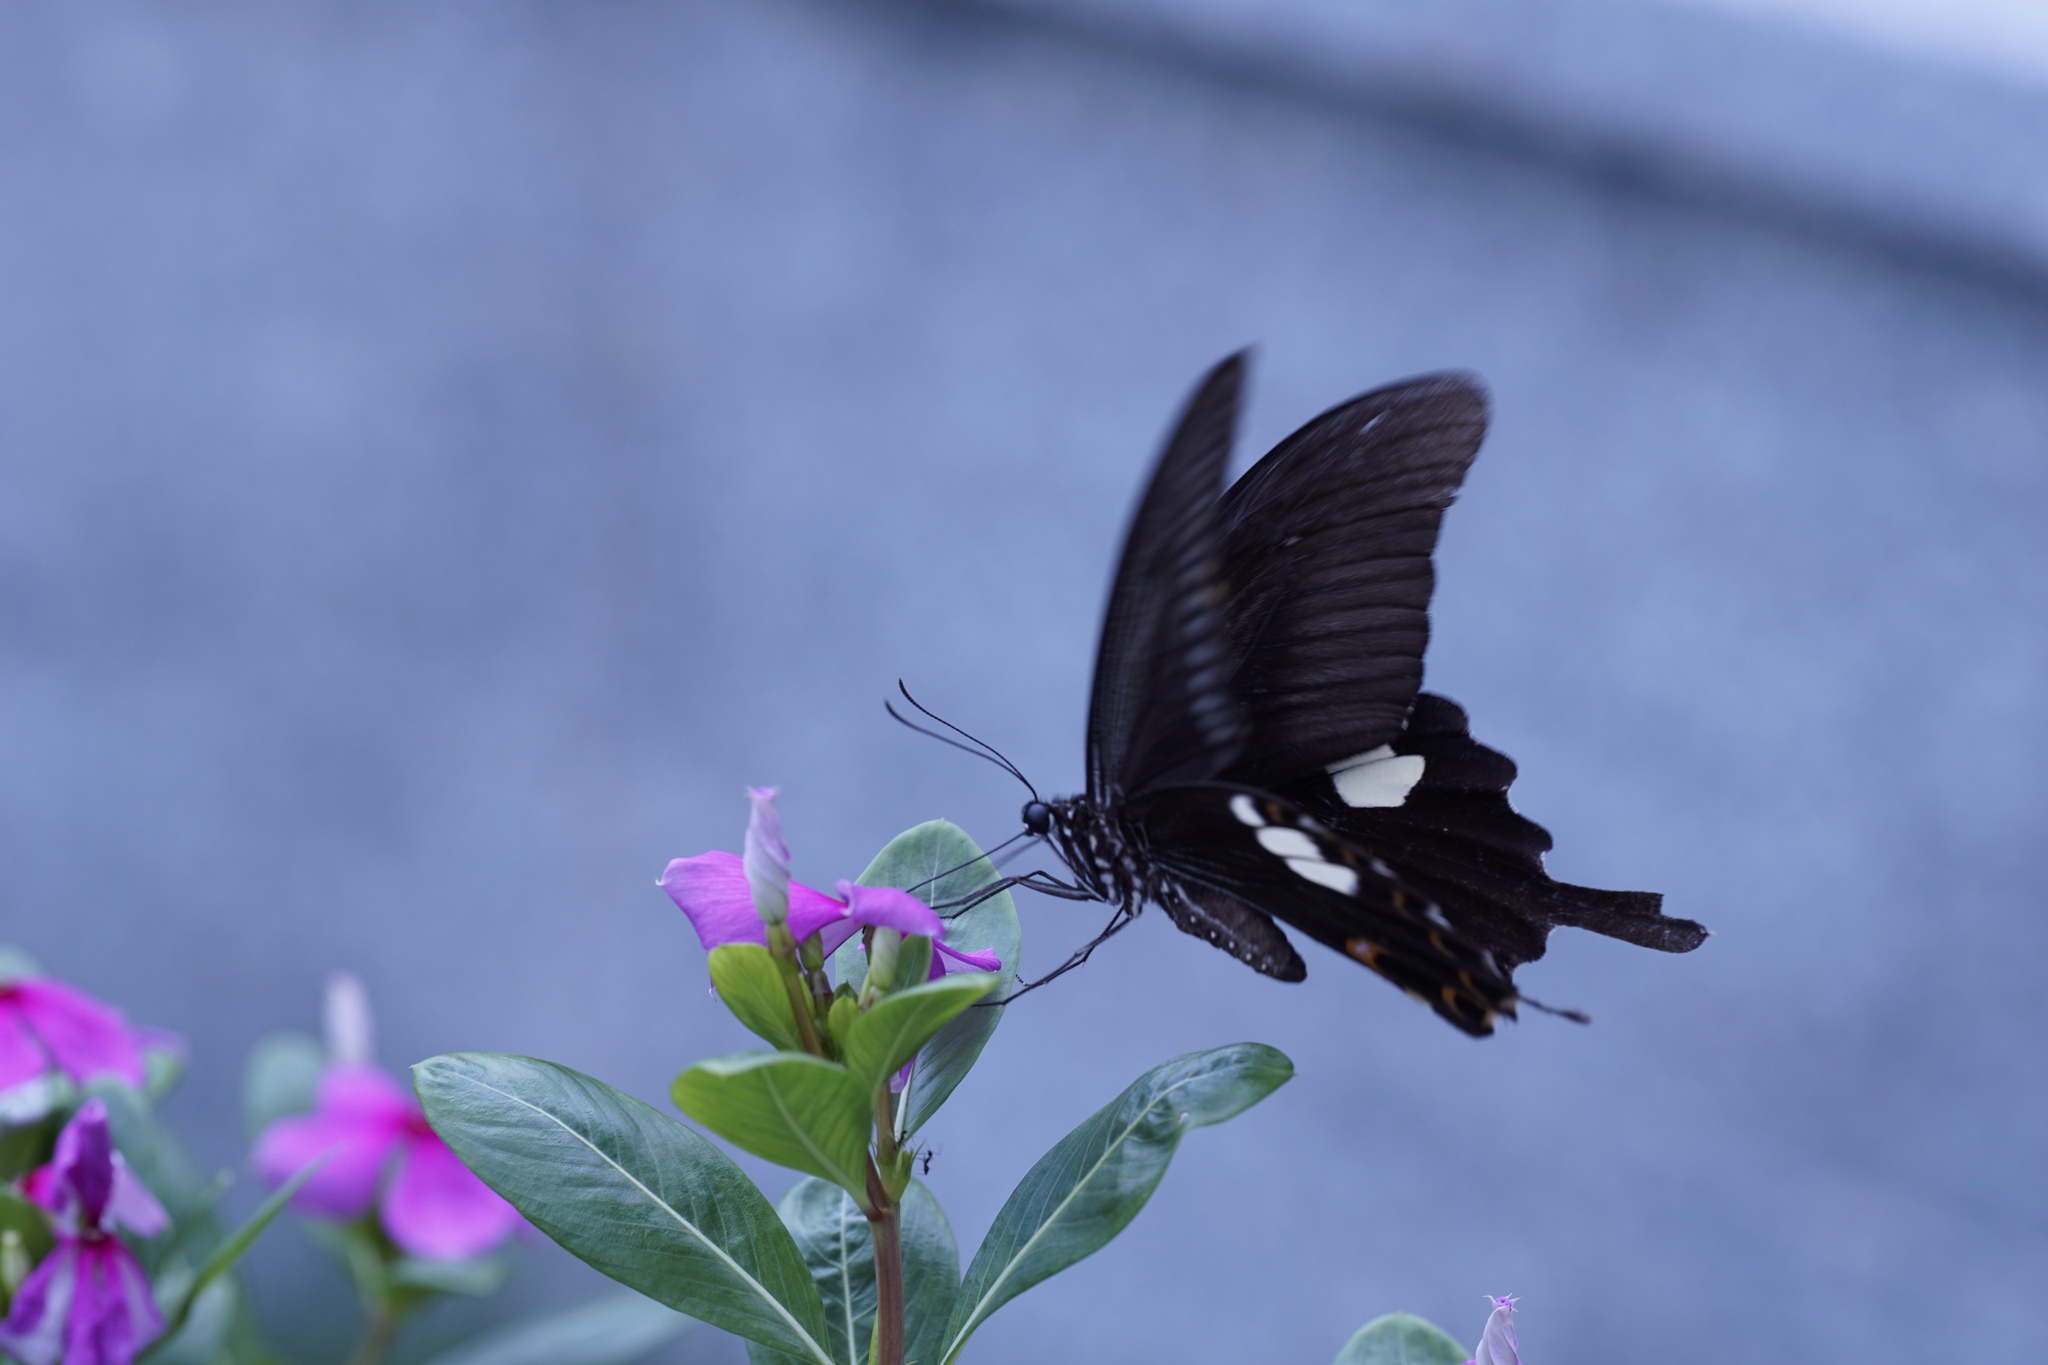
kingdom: Animalia
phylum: Arthropoda
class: Insecta
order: Lepidoptera
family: Papilionidae
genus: Papilio
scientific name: Papilio helenus
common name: Red helen
